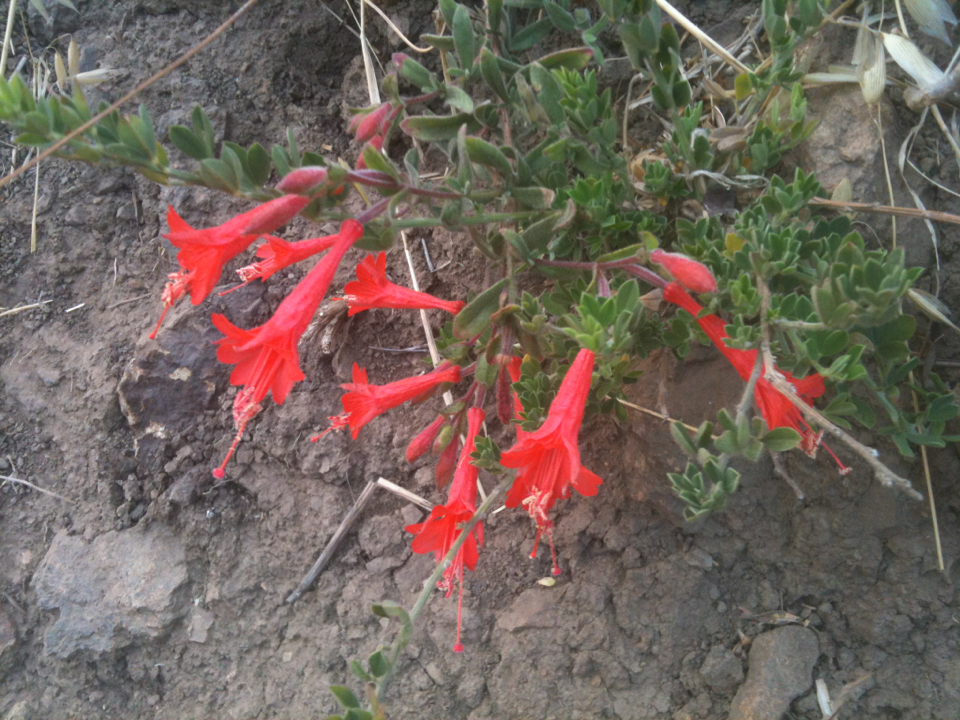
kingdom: Plantae
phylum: Tracheophyta
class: Magnoliopsida
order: Myrtales
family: Onagraceae
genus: Epilobium
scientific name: Epilobium canum
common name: California-fuchsia
